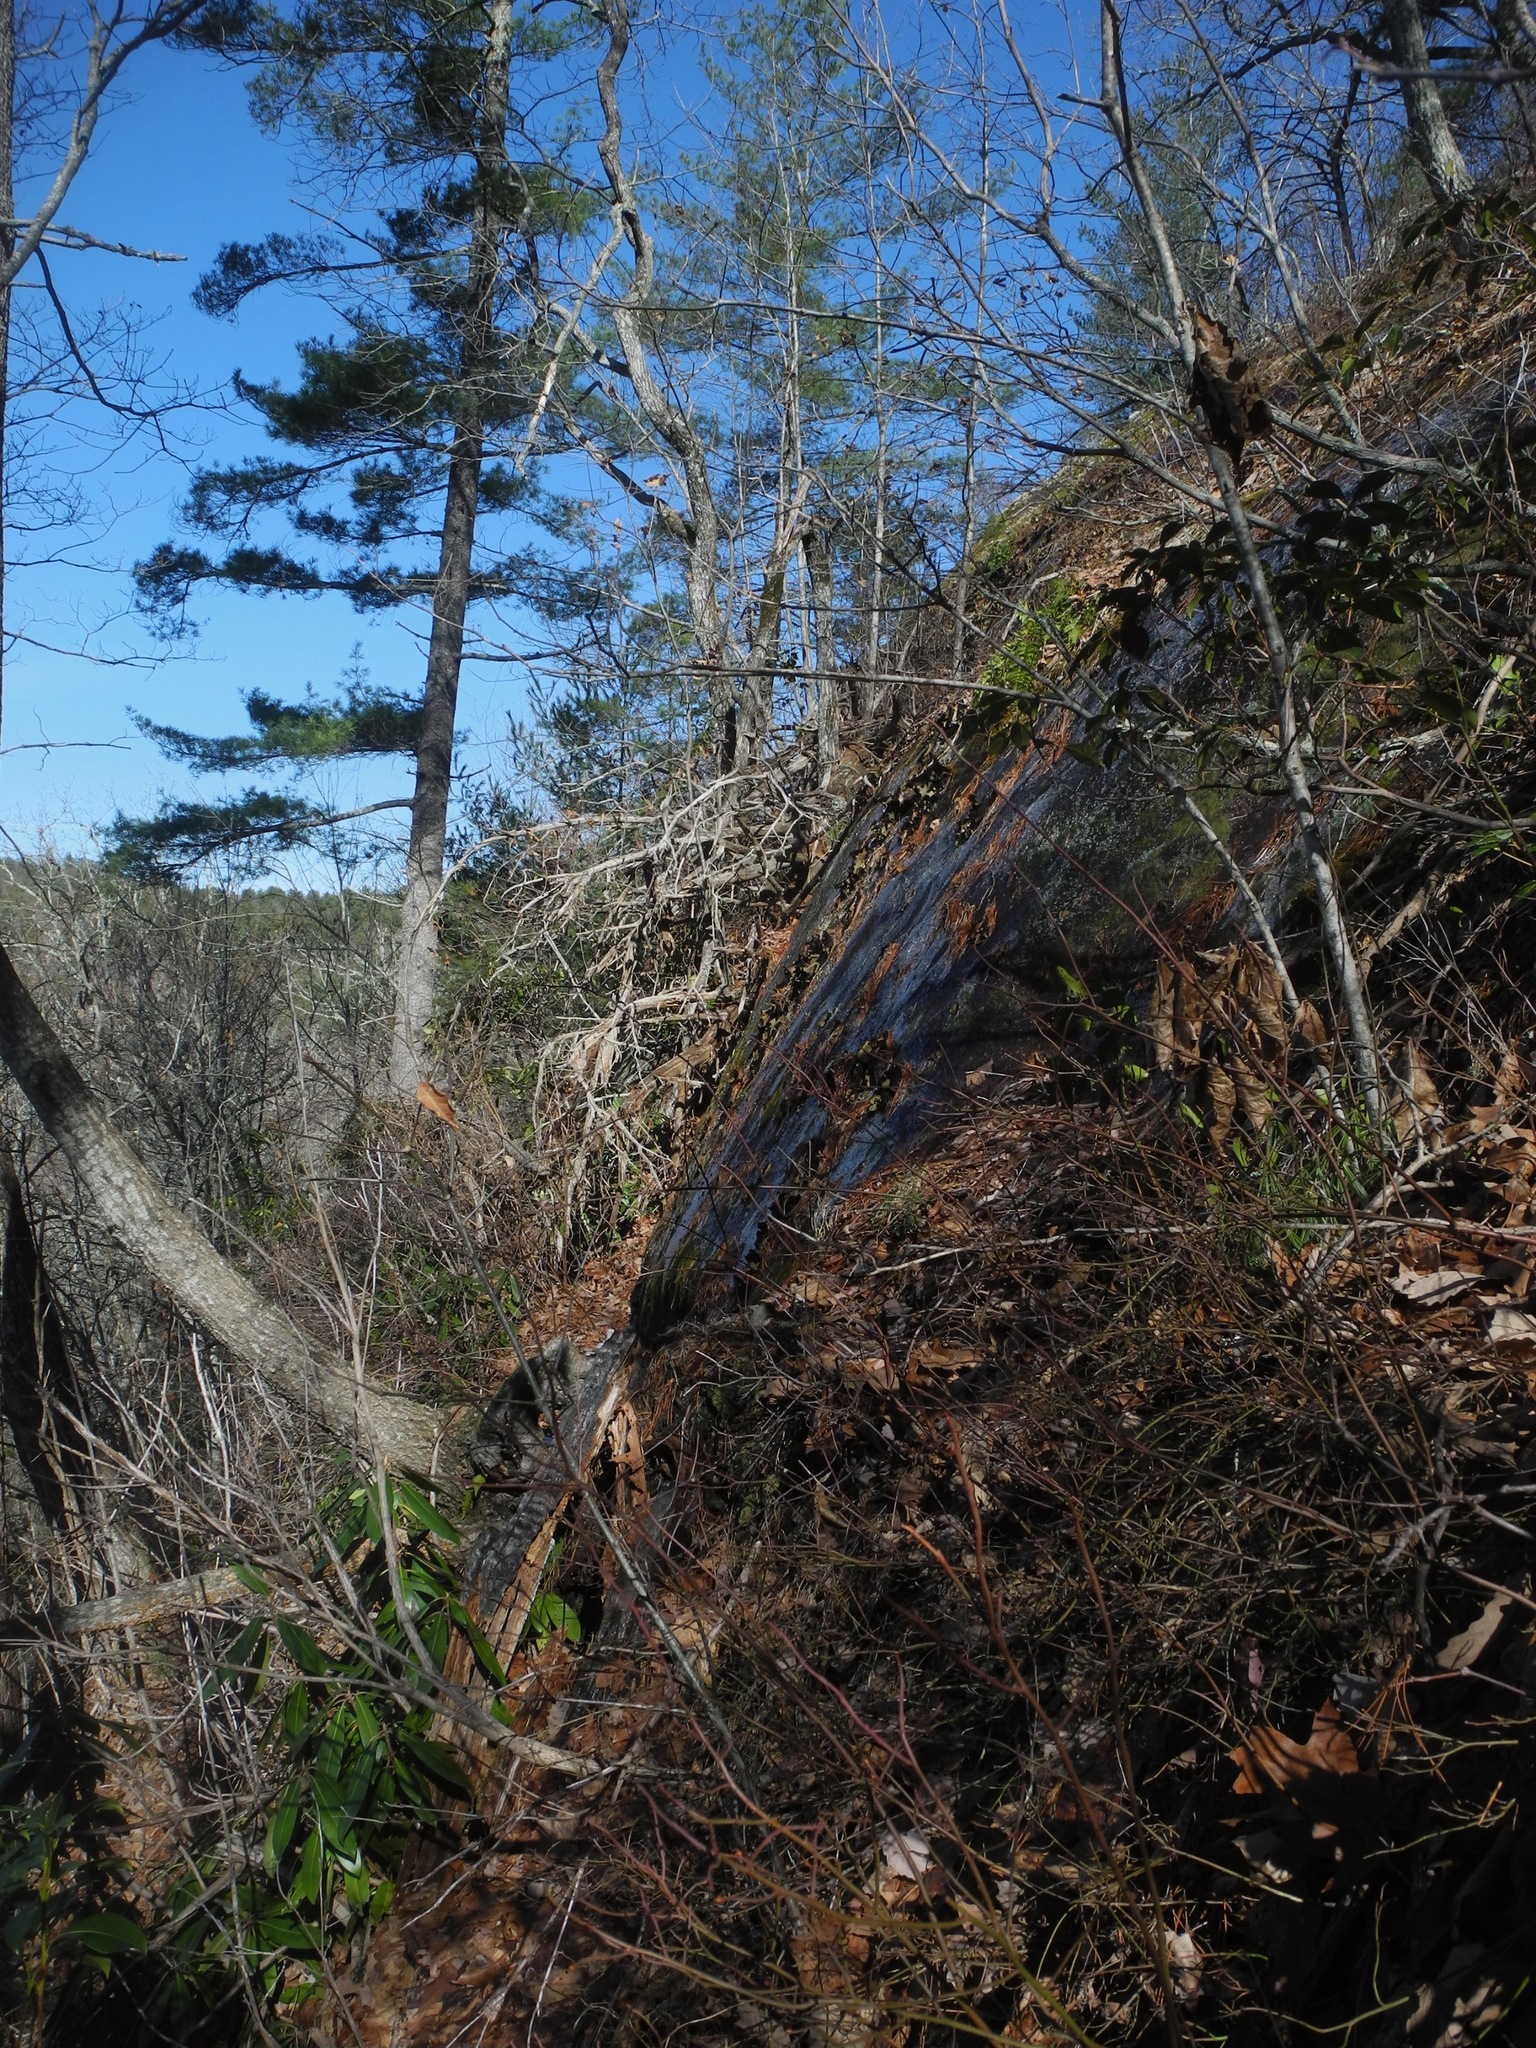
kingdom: Fungi
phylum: Ascomycota
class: Lecanoromycetes
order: Umbilicariales
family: Umbilicariaceae
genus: Umbilicaria
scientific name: Umbilicaria mammulata
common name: Smooth rock tripe
